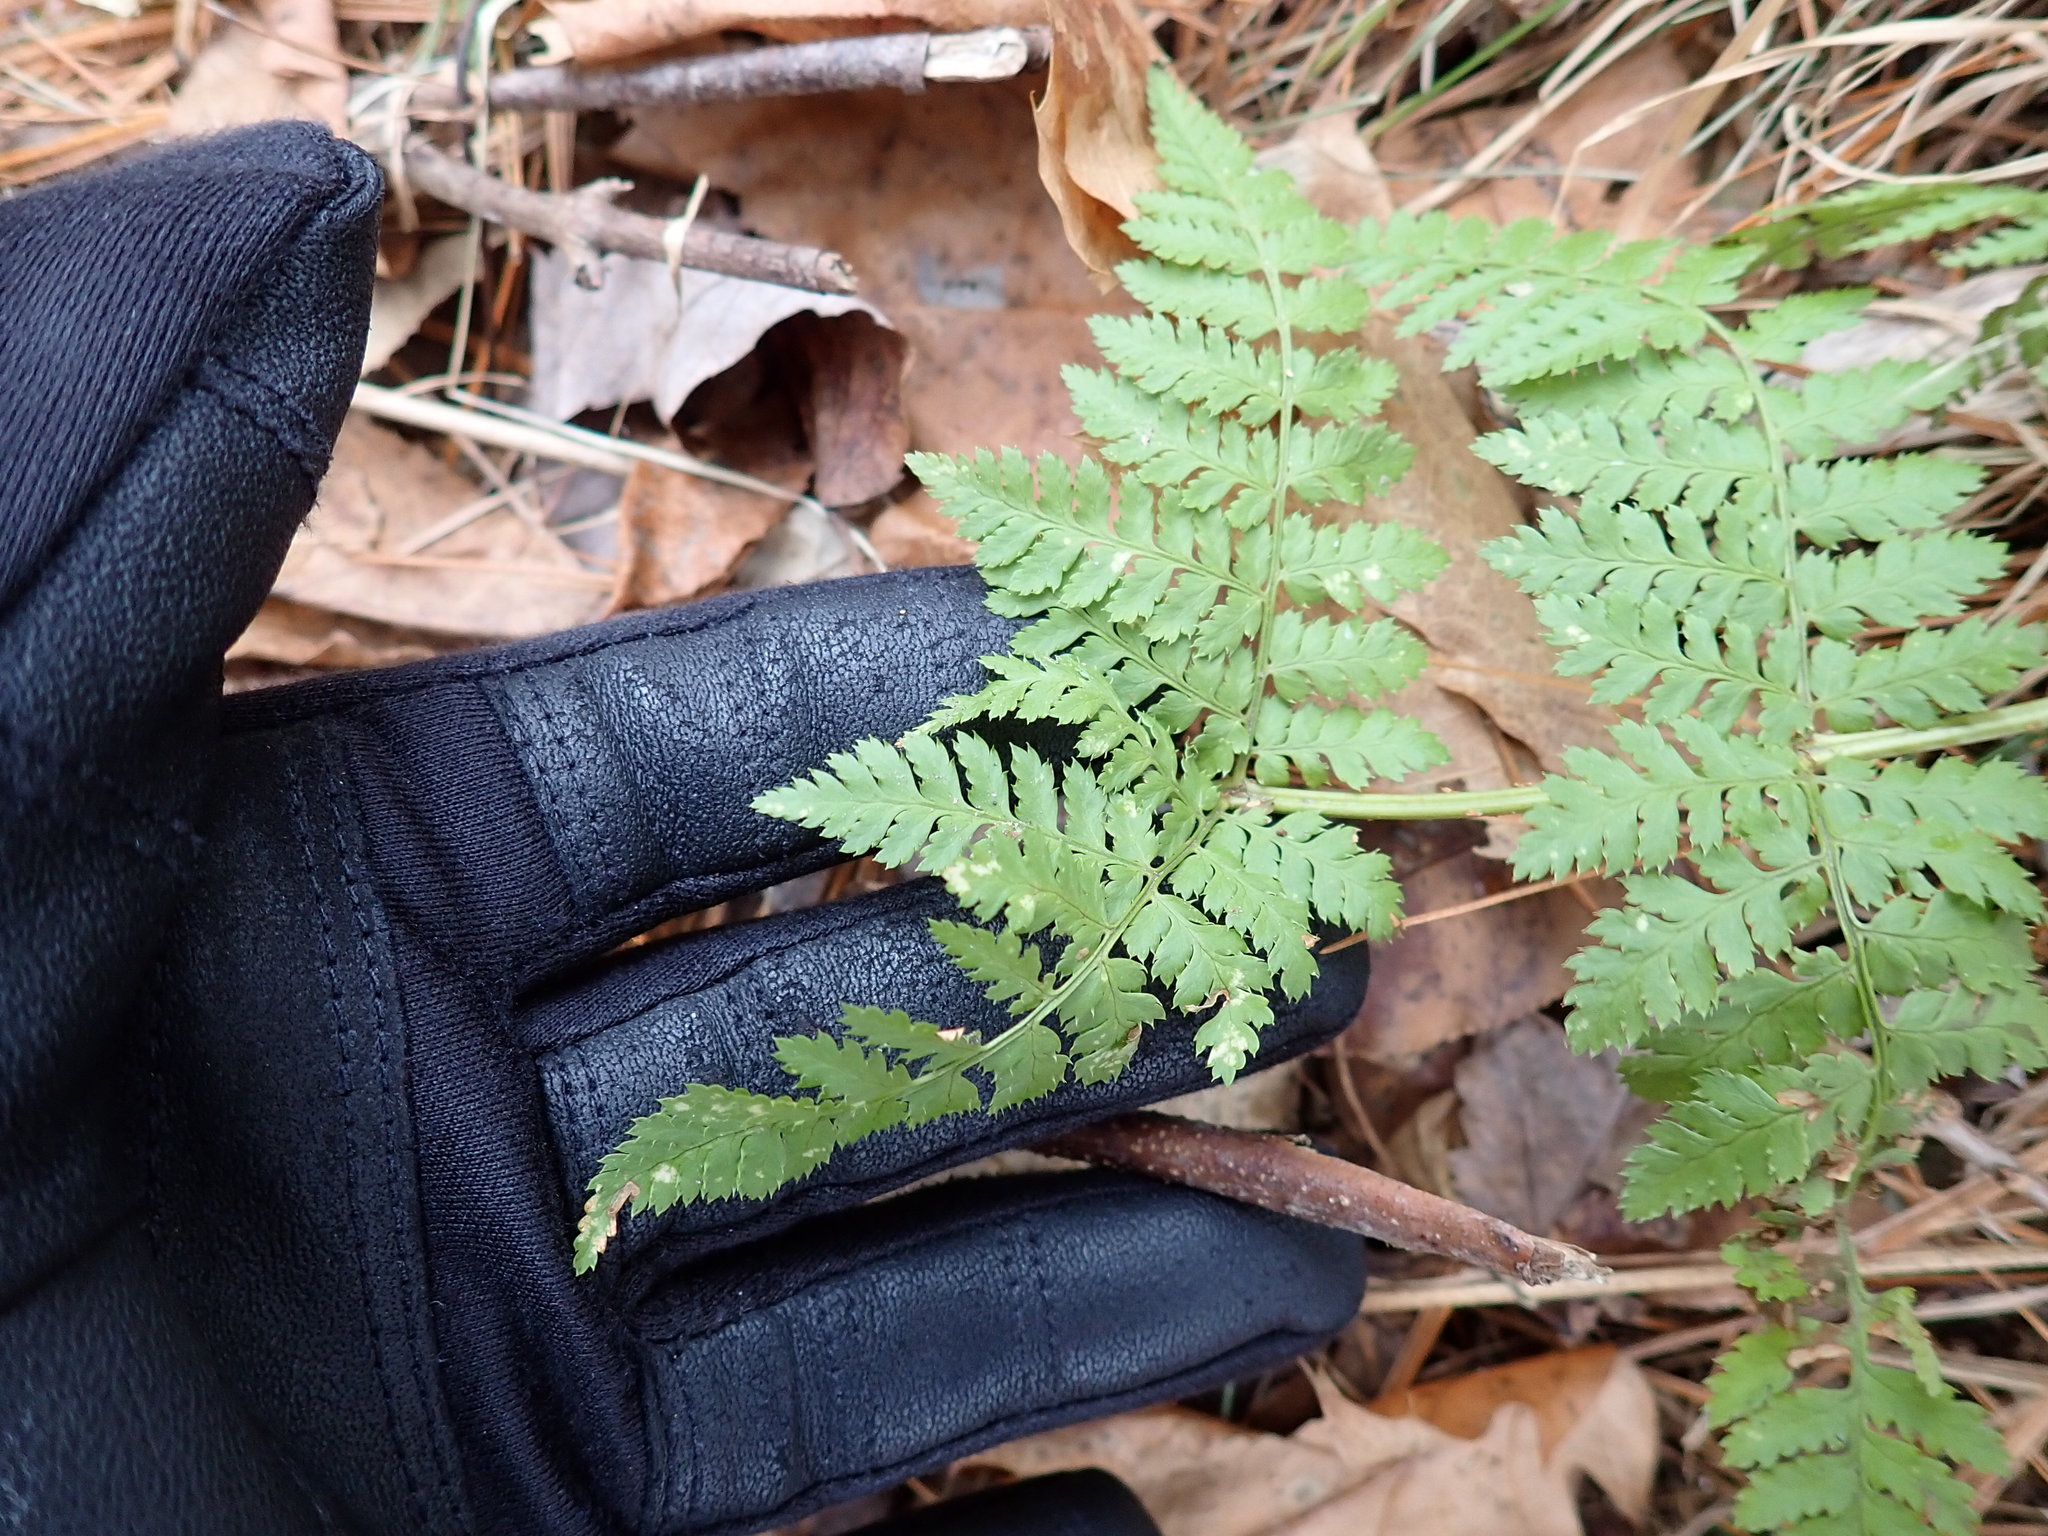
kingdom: Plantae
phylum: Tracheophyta
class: Polypodiopsida
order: Polypodiales
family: Dryopteridaceae
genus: Dryopteris
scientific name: Dryopteris intermedia
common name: Evergreen wood fern
